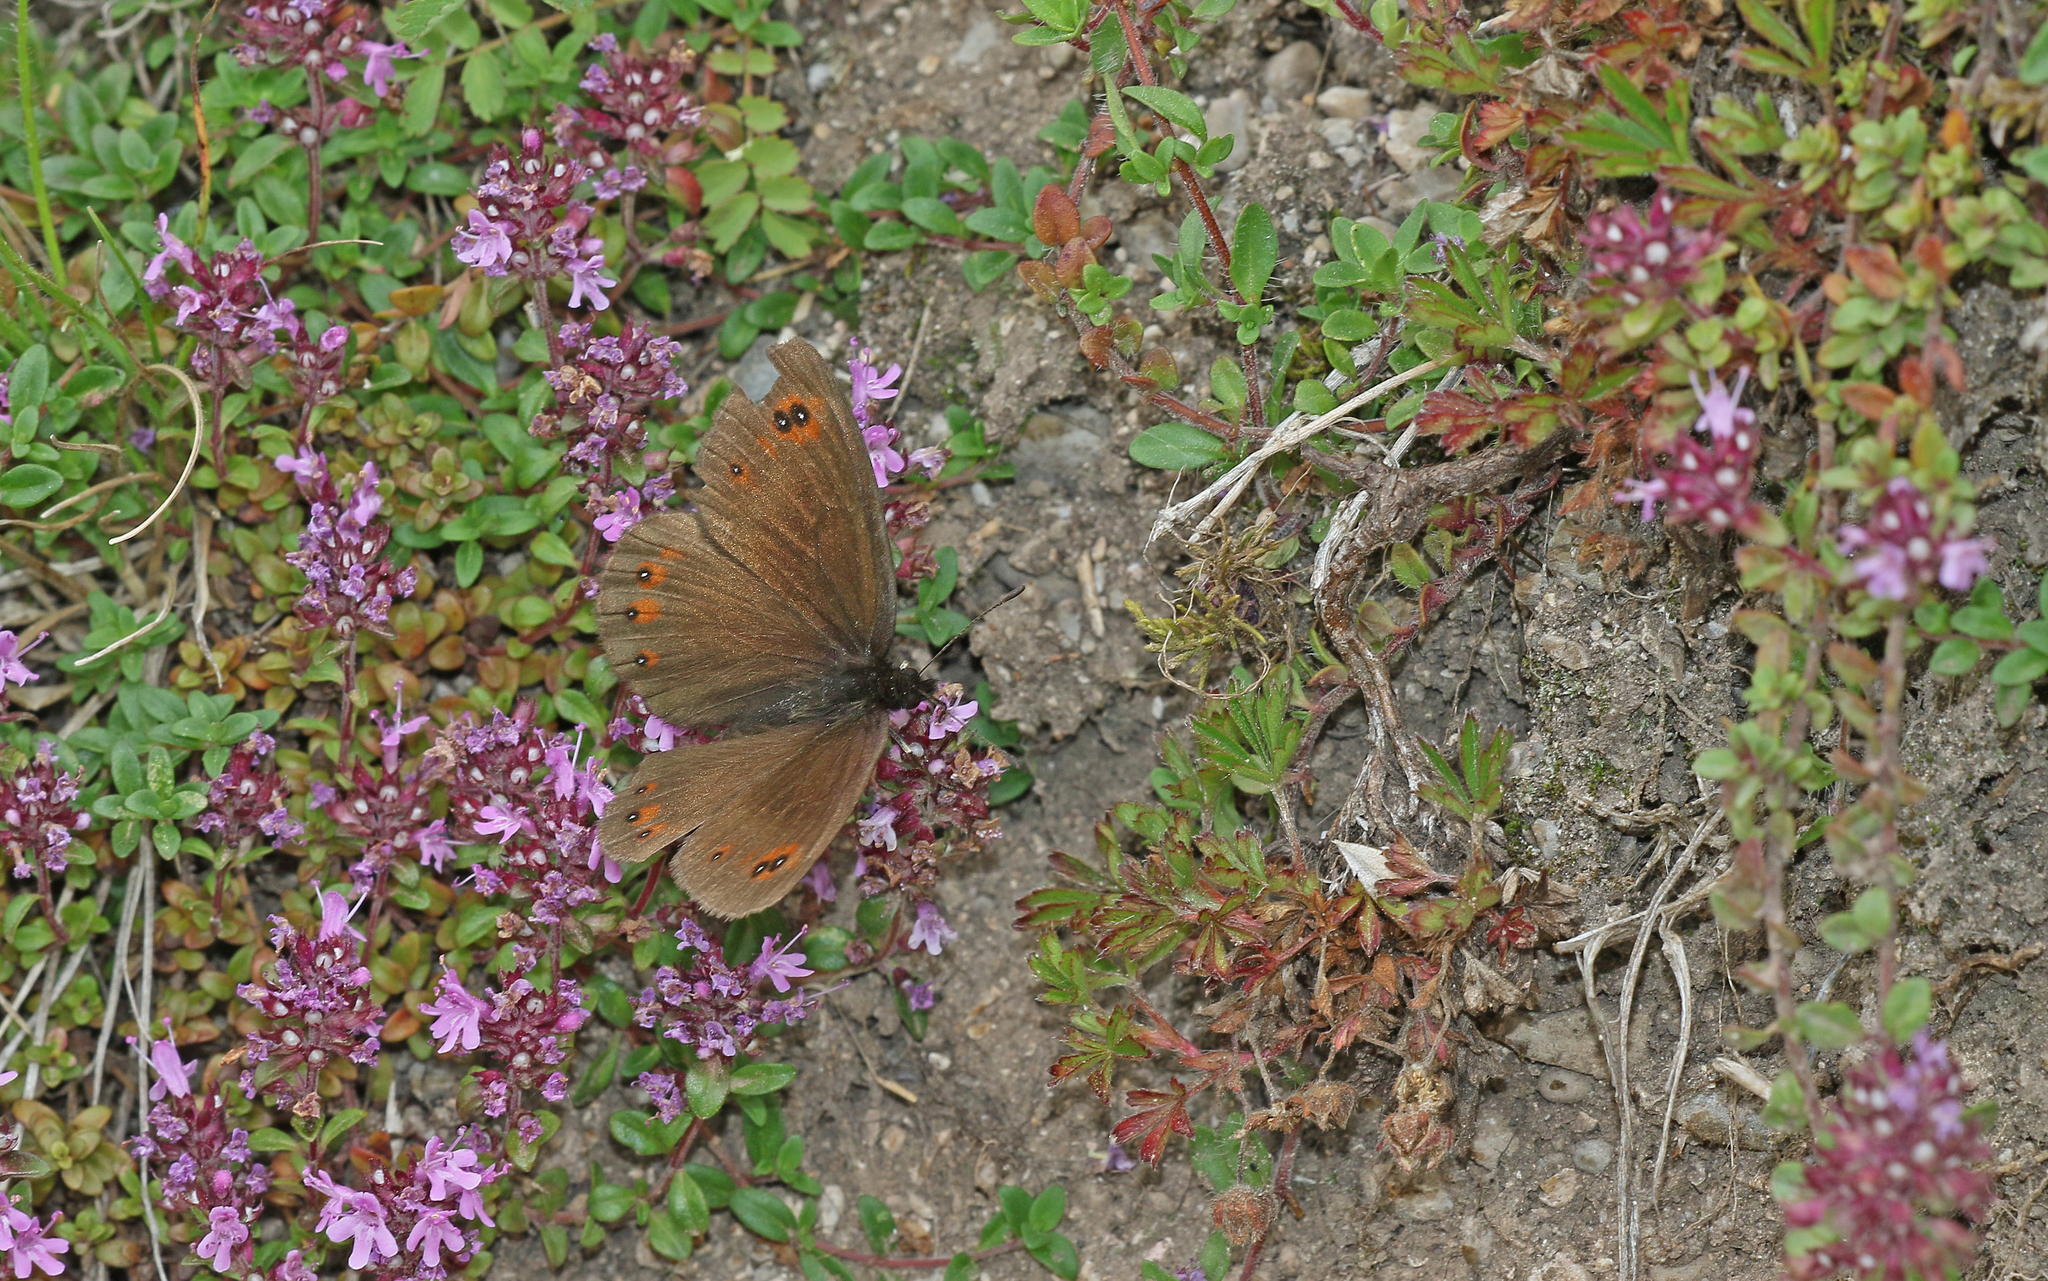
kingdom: Animalia
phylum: Arthropoda
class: Insecta
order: Lepidoptera
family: Nymphalidae
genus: Erebia
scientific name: Erebia meolans
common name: Piedmont ringlet
